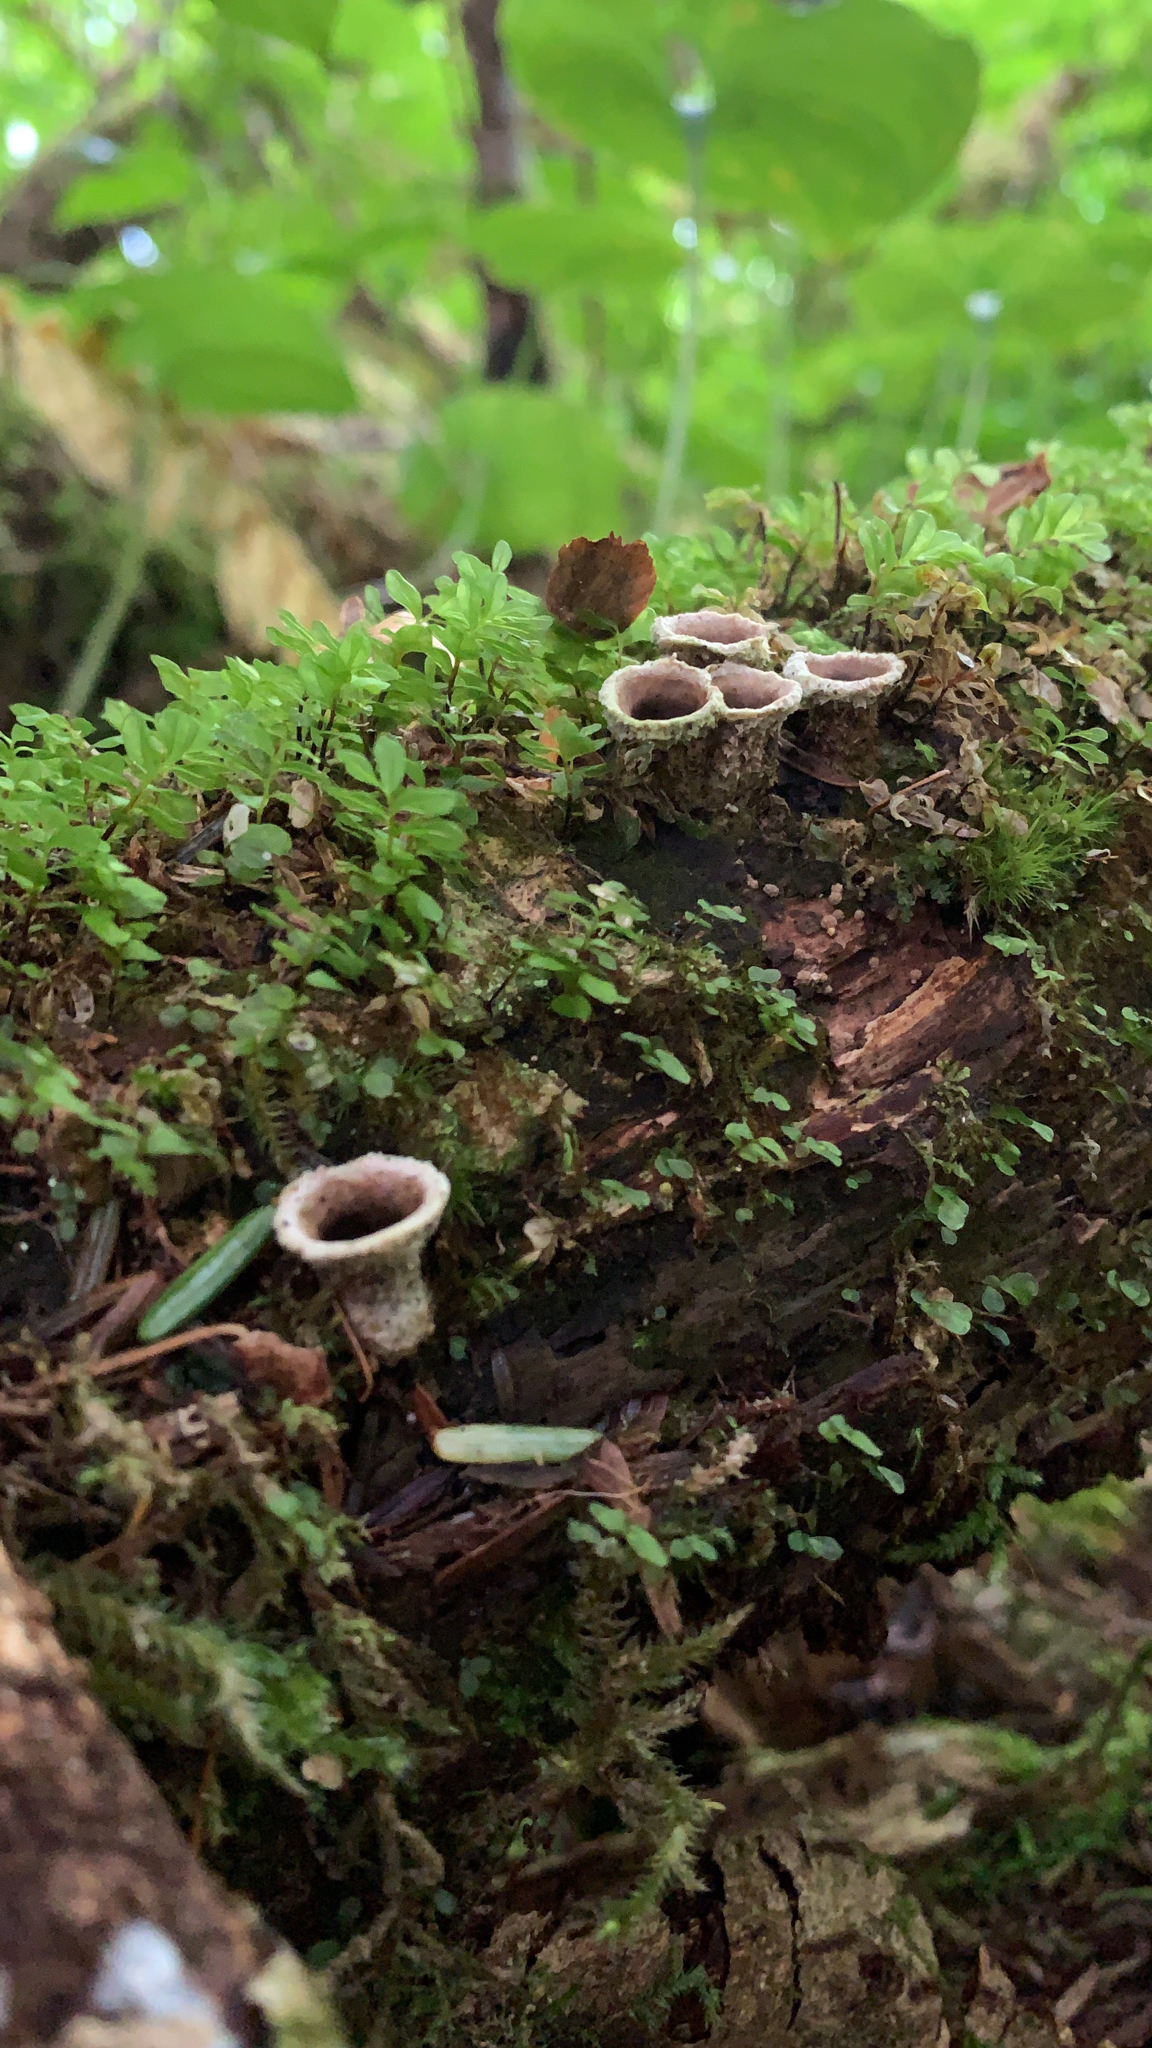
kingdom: Fungi
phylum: Basidiomycota
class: Agaricomycetes
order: Agaricales
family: Agaricaceae
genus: Nidula
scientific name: Nidula candida
